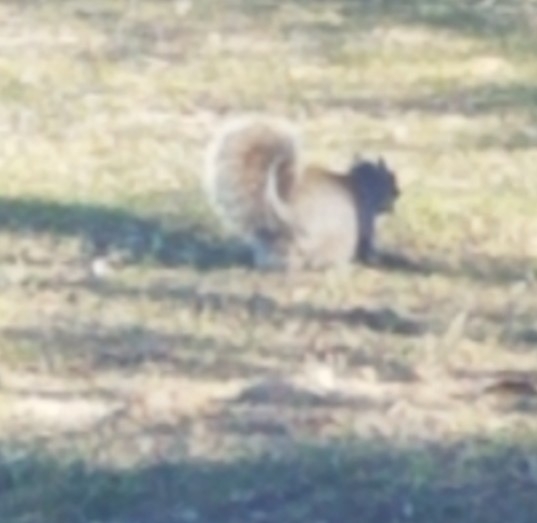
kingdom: Animalia
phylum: Chordata
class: Mammalia
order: Rodentia
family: Sciuridae
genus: Sciurus
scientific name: Sciurus carolinensis
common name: Eastern gray squirrel
